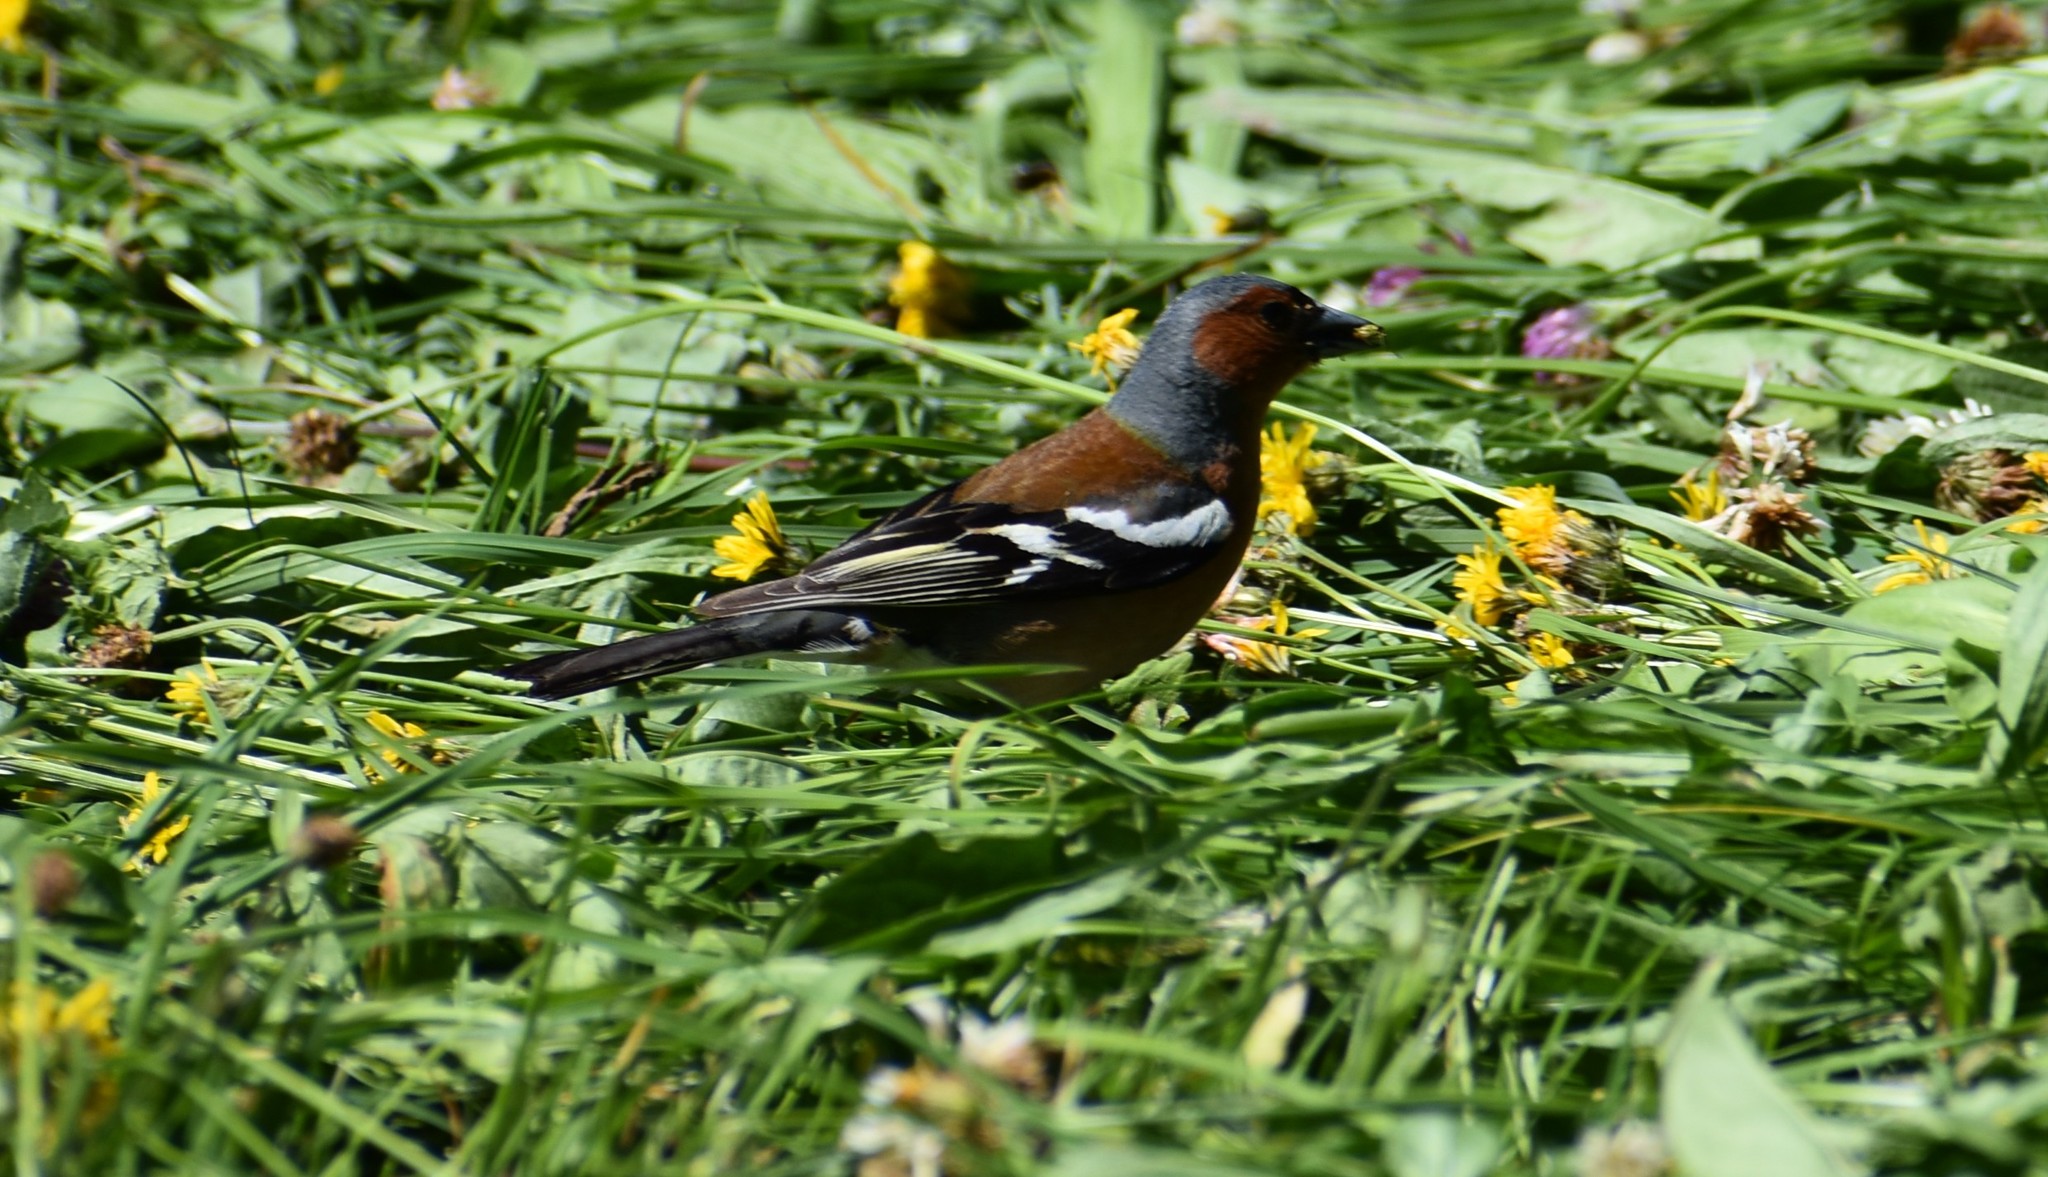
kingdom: Animalia
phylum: Chordata
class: Aves
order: Passeriformes
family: Fringillidae
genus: Fringilla
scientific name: Fringilla coelebs
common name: Common chaffinch
